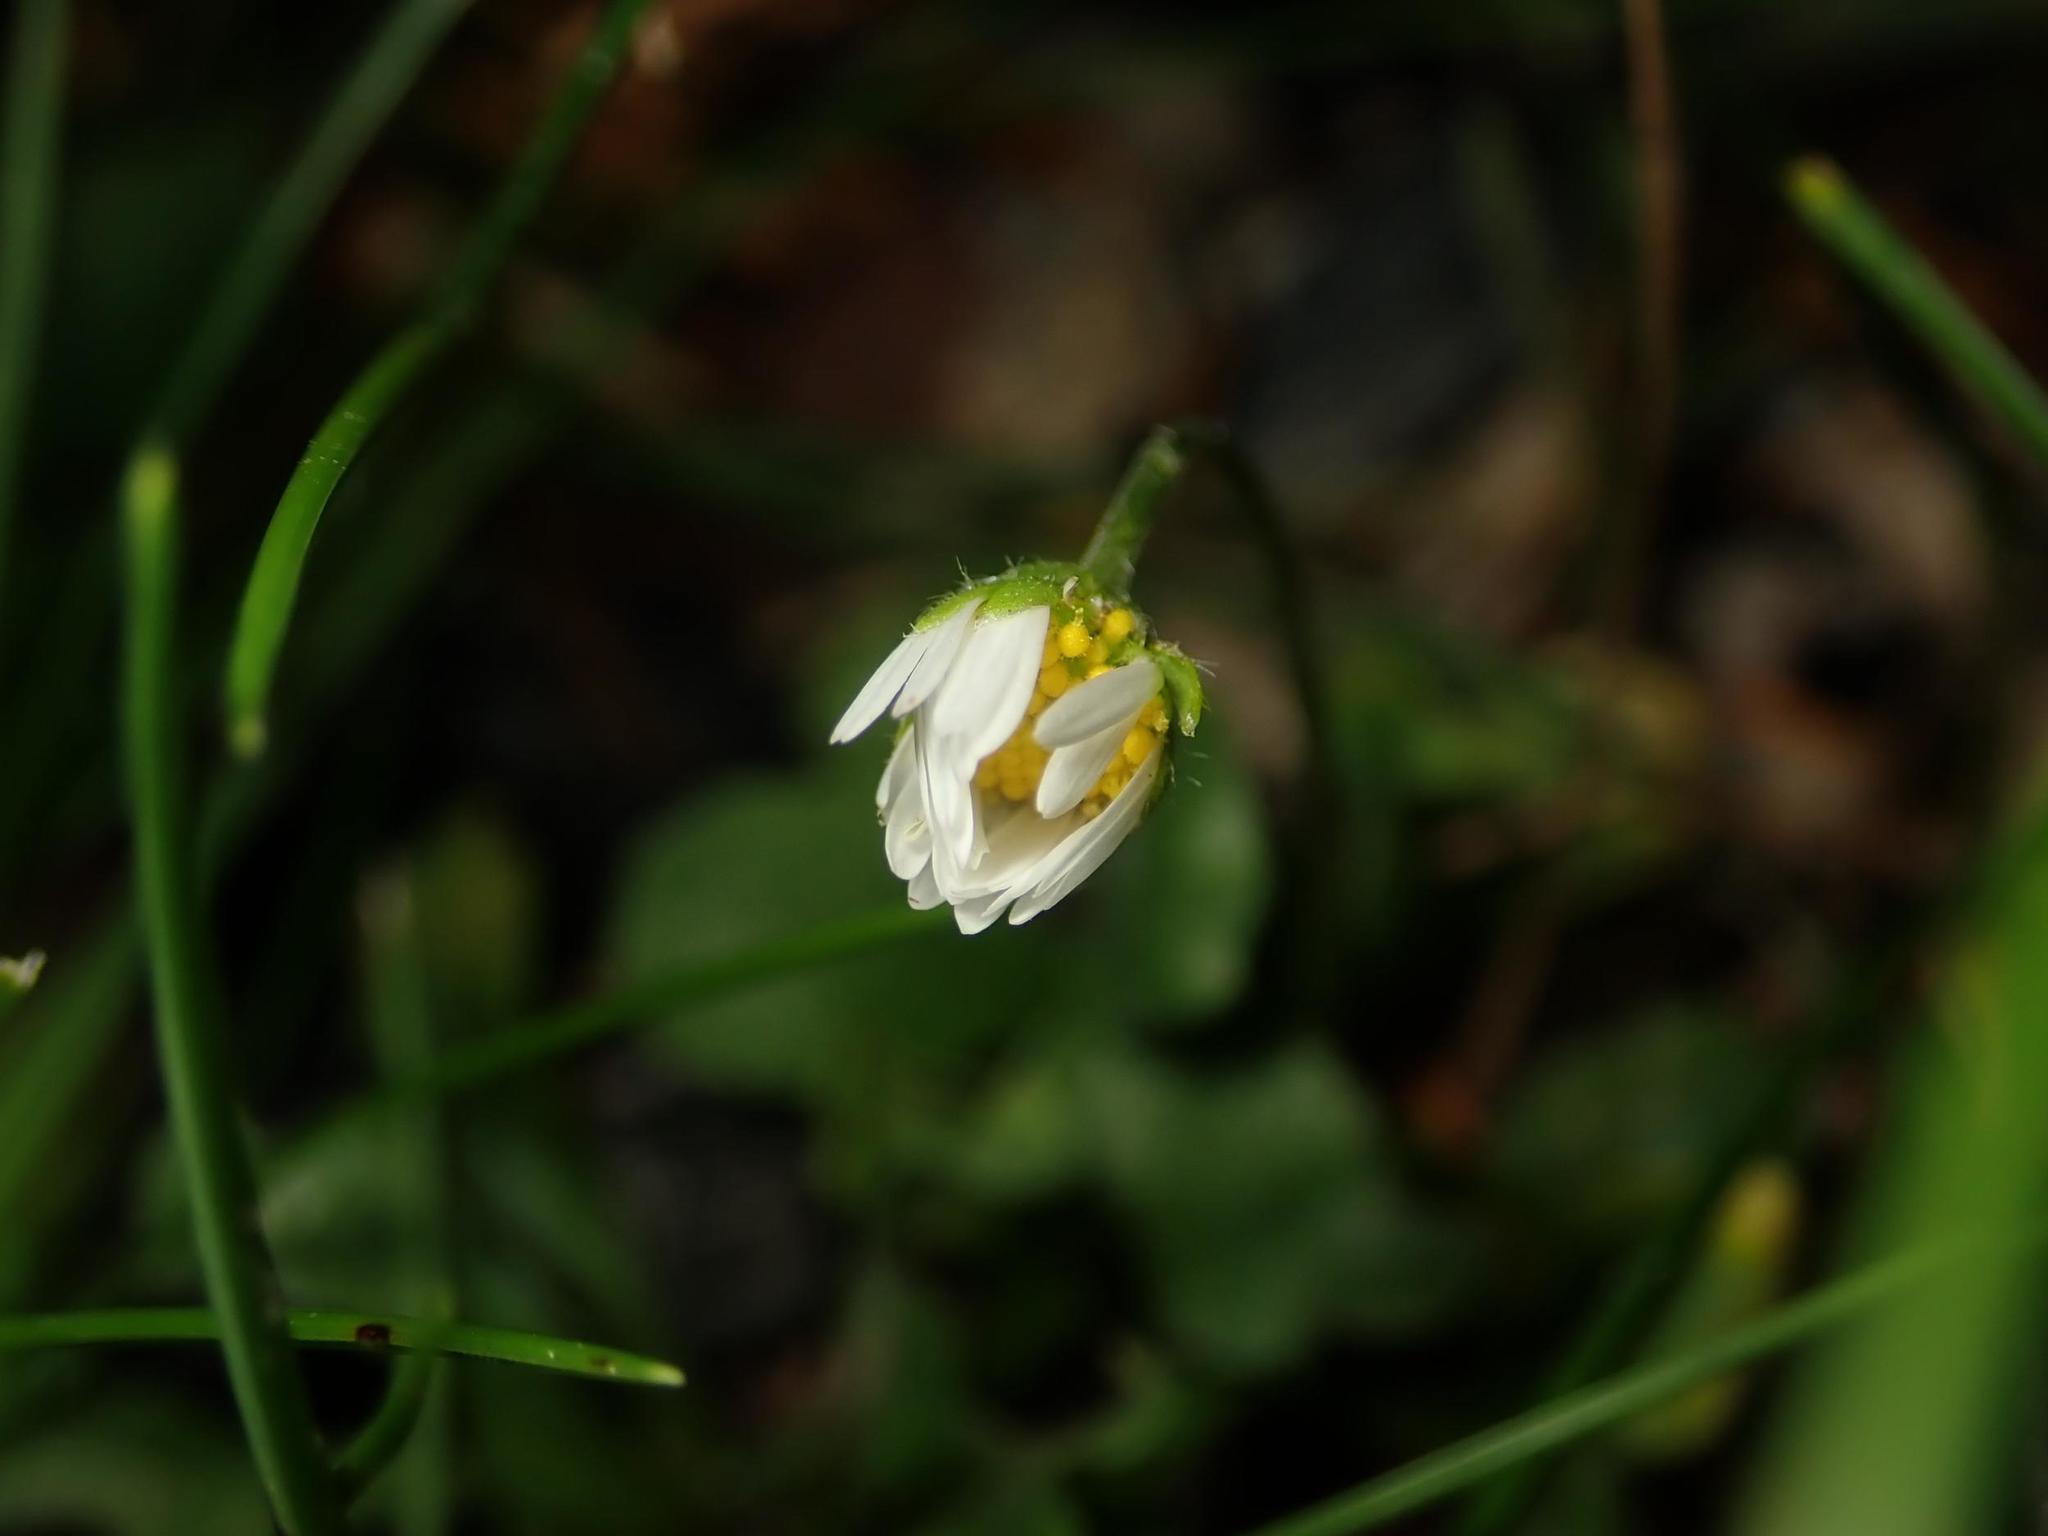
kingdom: Plantae
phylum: Tracheophyta
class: Magnoliopsida
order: Asterales
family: Asteraceae
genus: Bellis
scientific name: Bellis perennis
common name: Lawndaisy
